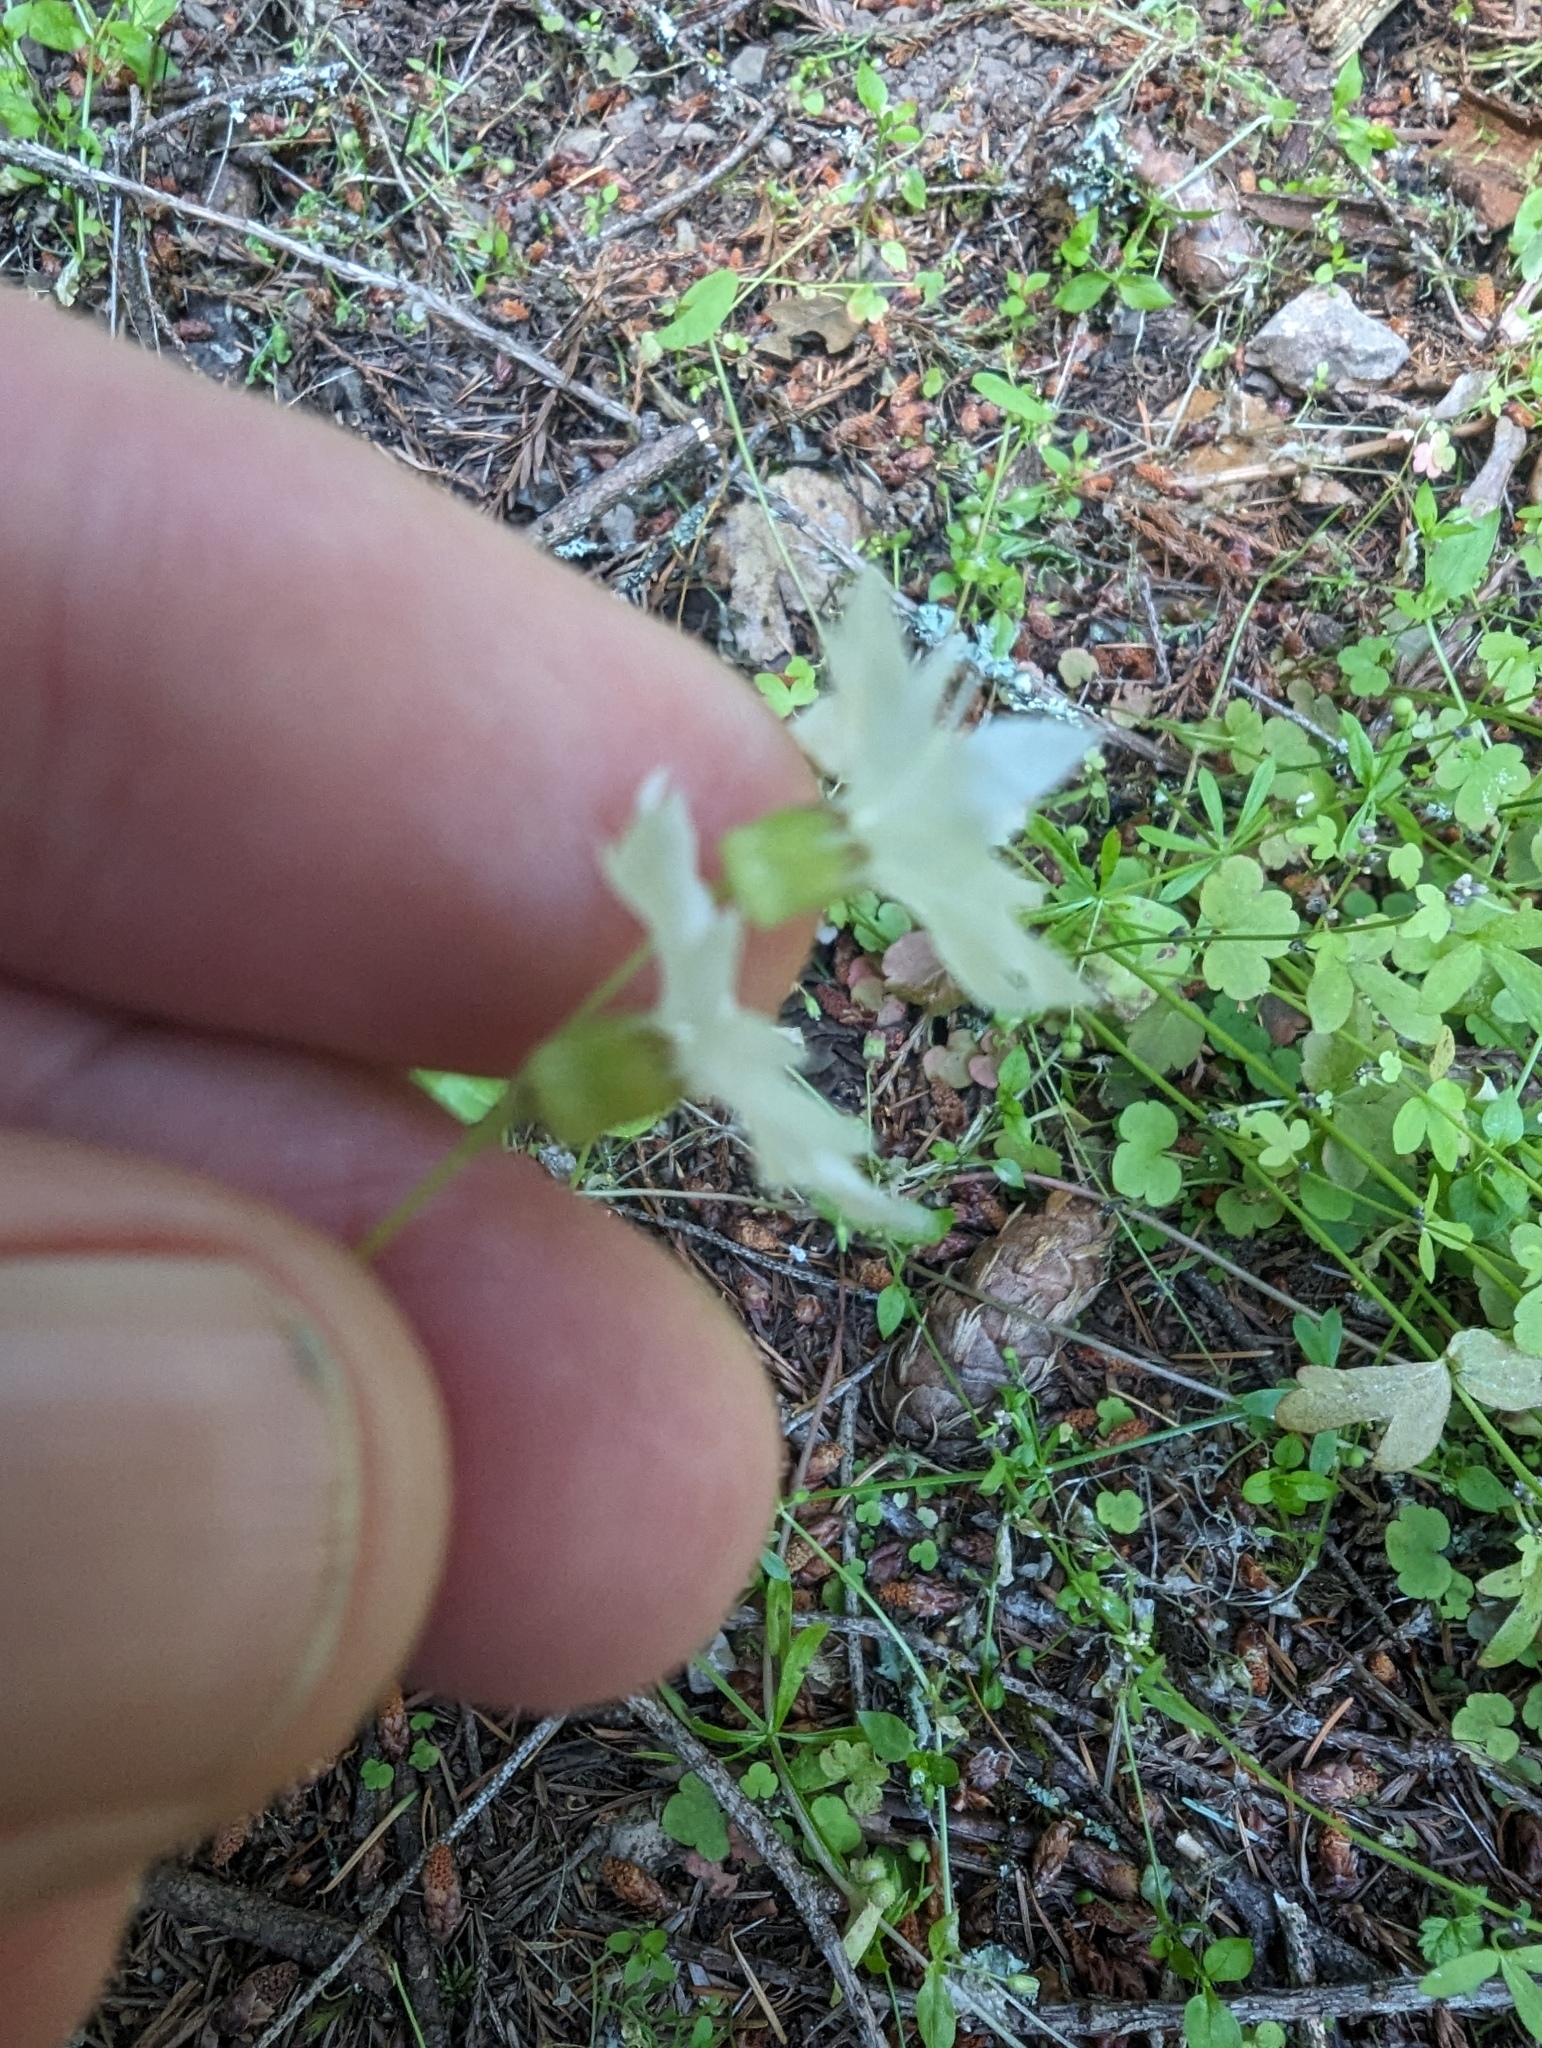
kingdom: Plantae
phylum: Tracheophyta
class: Magnoliopsida
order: Saxifragales
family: Saxifragaceae
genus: Lithophragma
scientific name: Lithophragma heterophyllum
